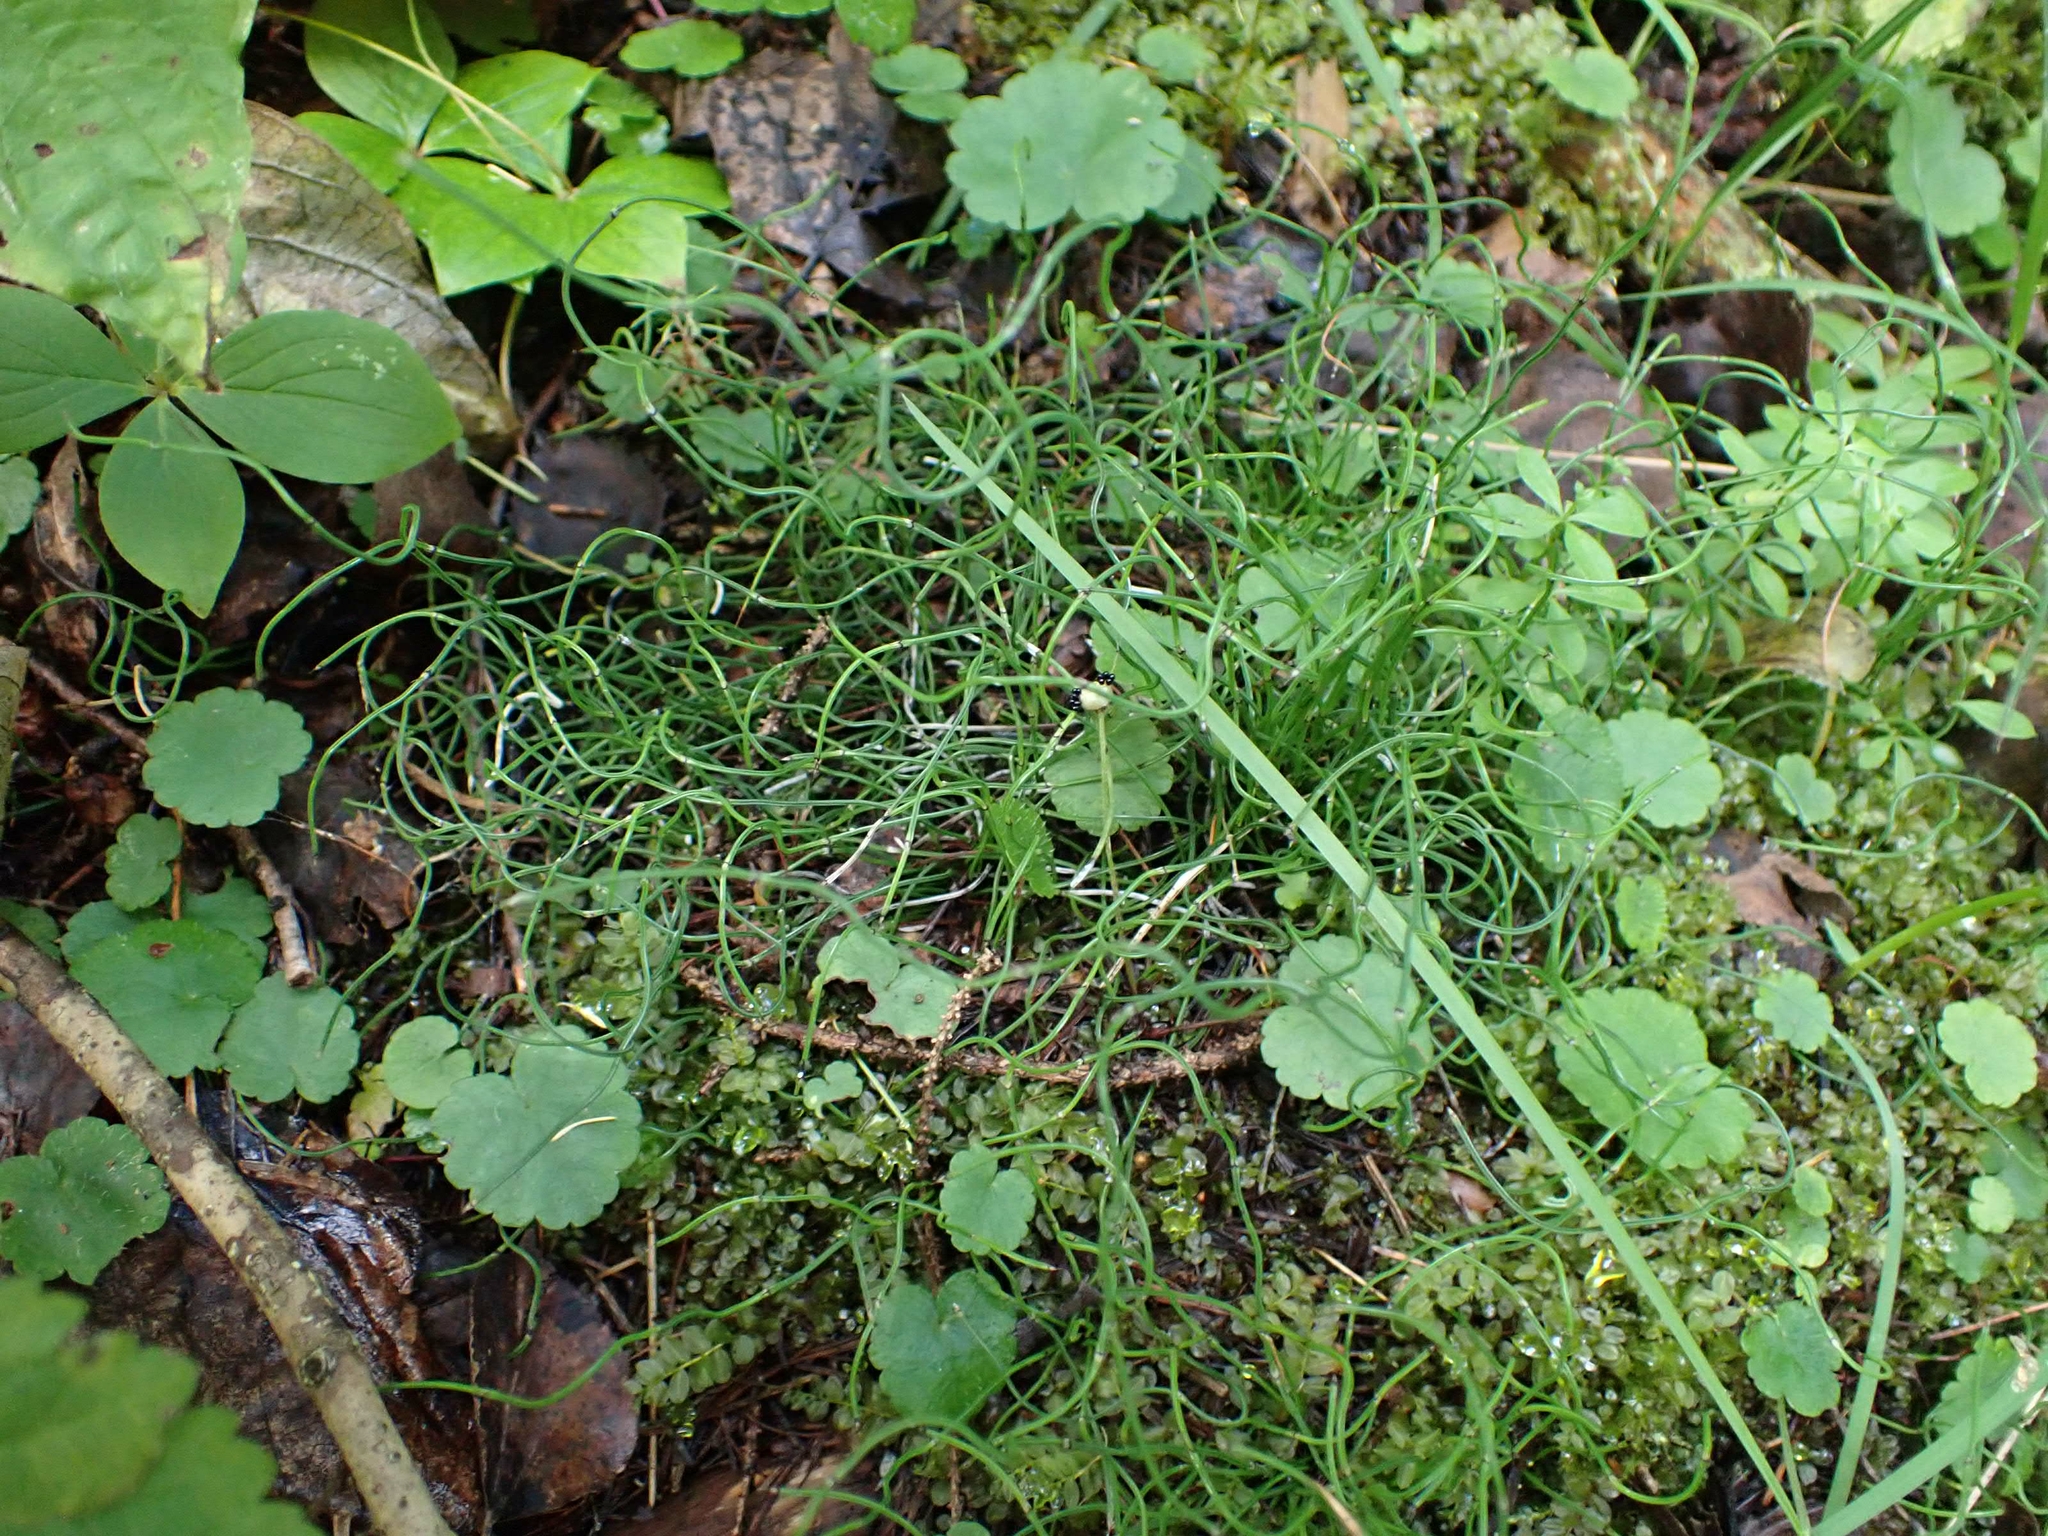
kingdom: Plantae
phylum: Tracheophyta
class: Polypodiopsida
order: Equisetales
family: Equisetaceae
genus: Equisetum
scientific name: Equisetum scirpoides
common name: Delicate horsetail
